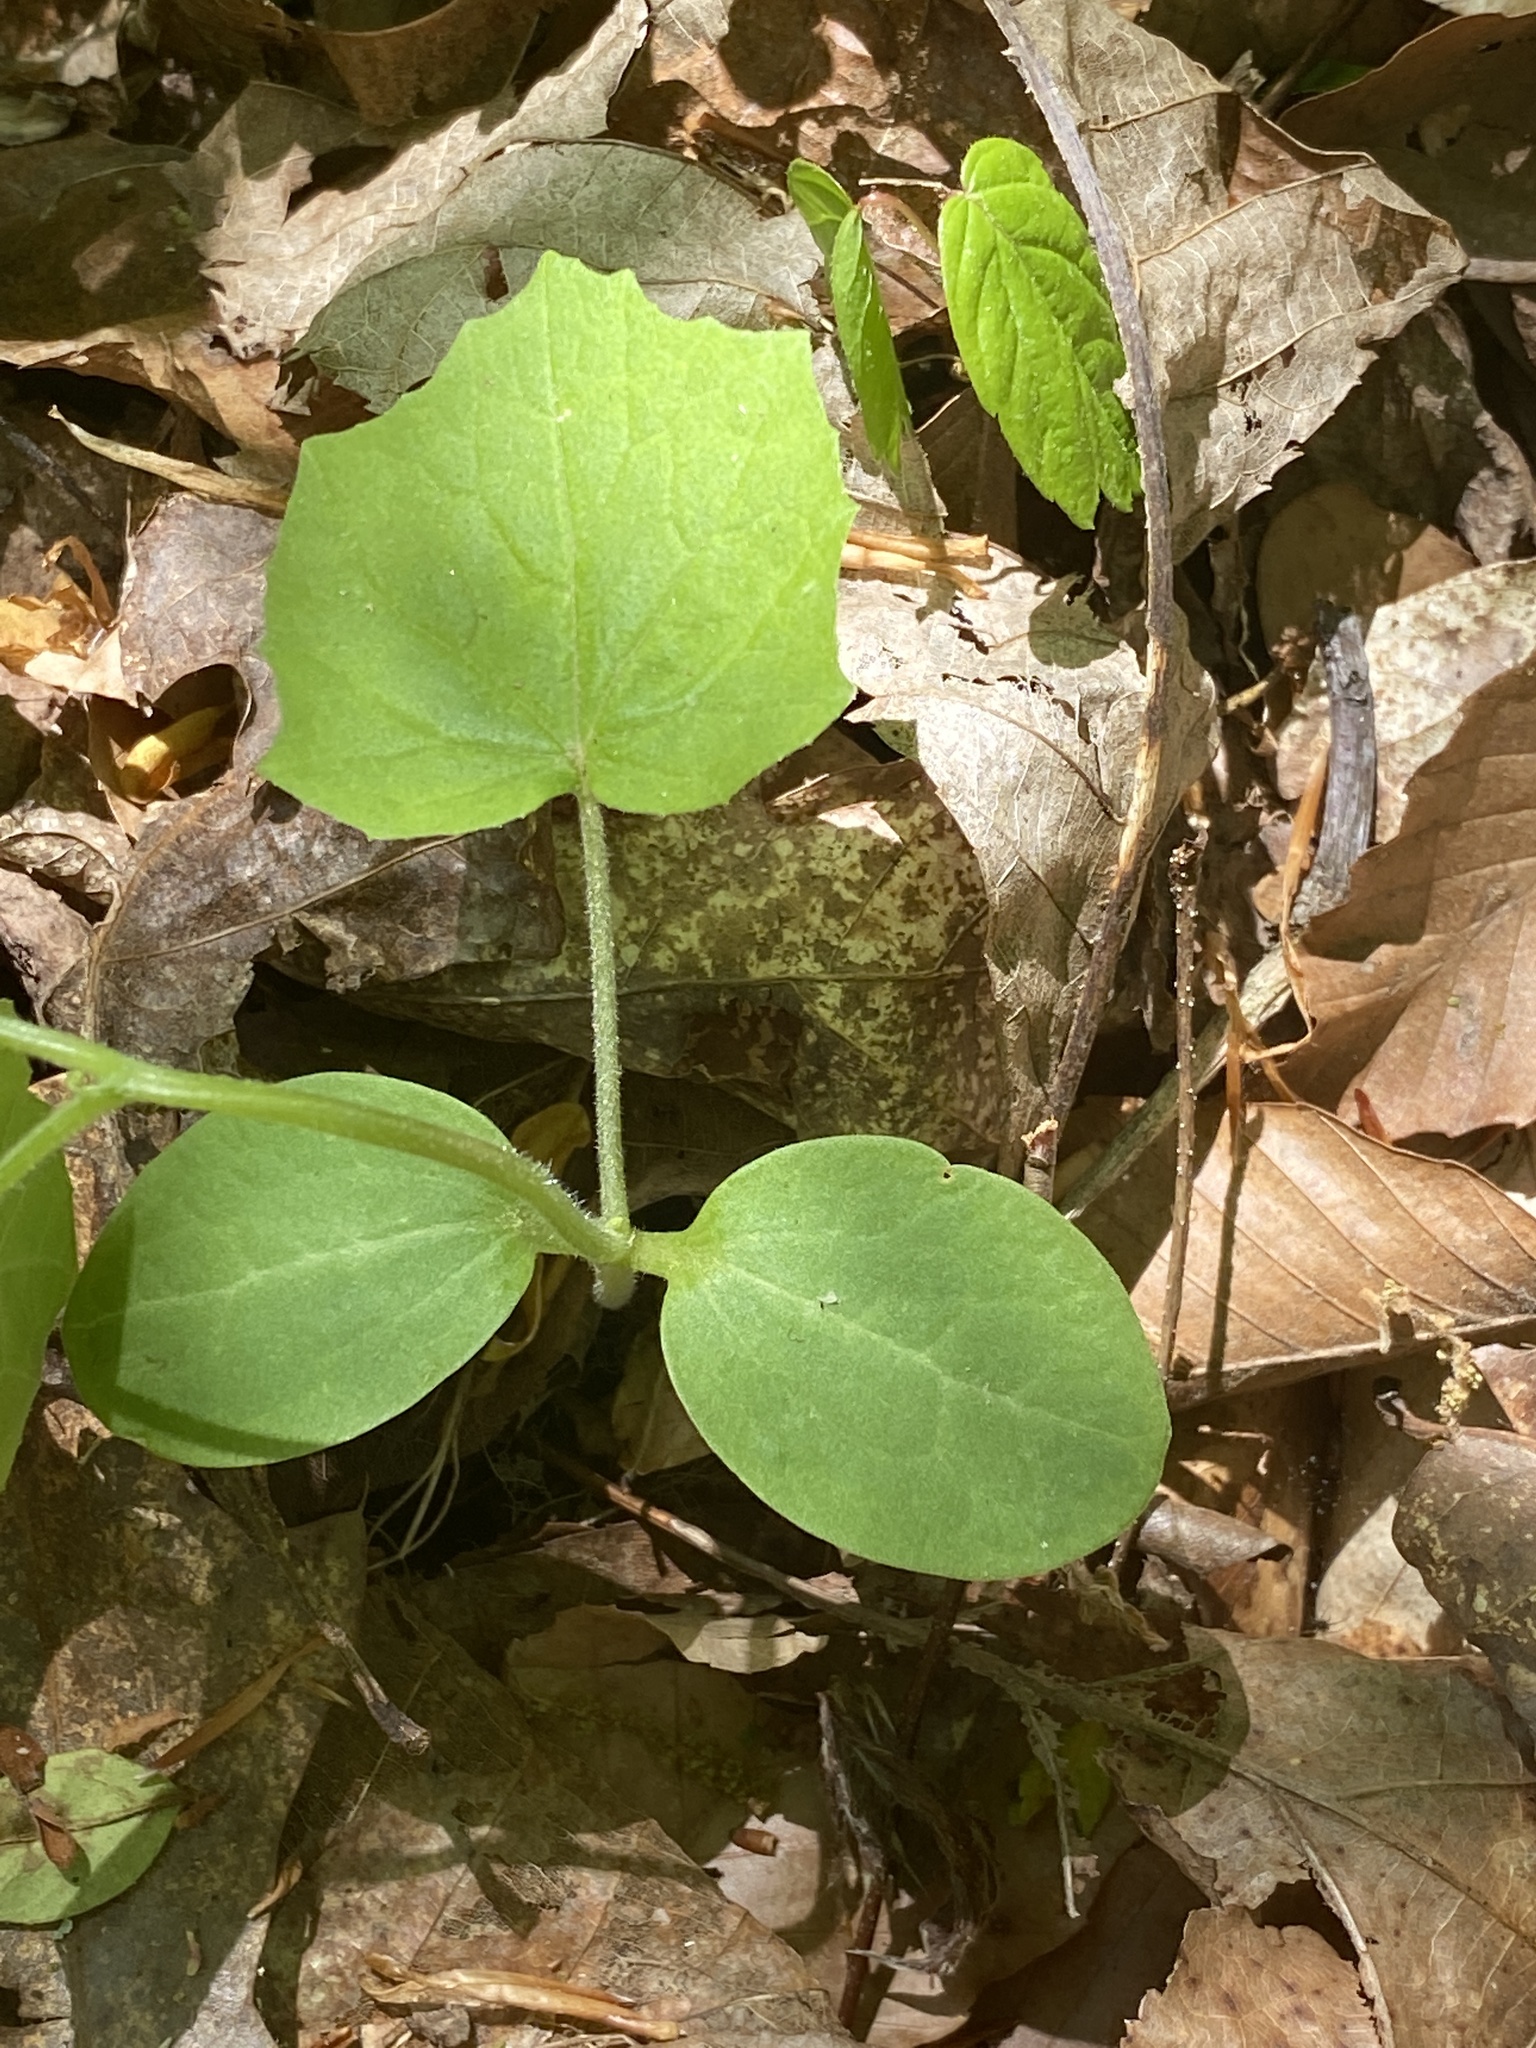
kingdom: Plantae
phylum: Tracheophyta
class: Magnoliopsida
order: Cucurbitales
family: Cucurbitaceae
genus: Sicyos
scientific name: Sicyos angulatus
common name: Angled burr cucumber
